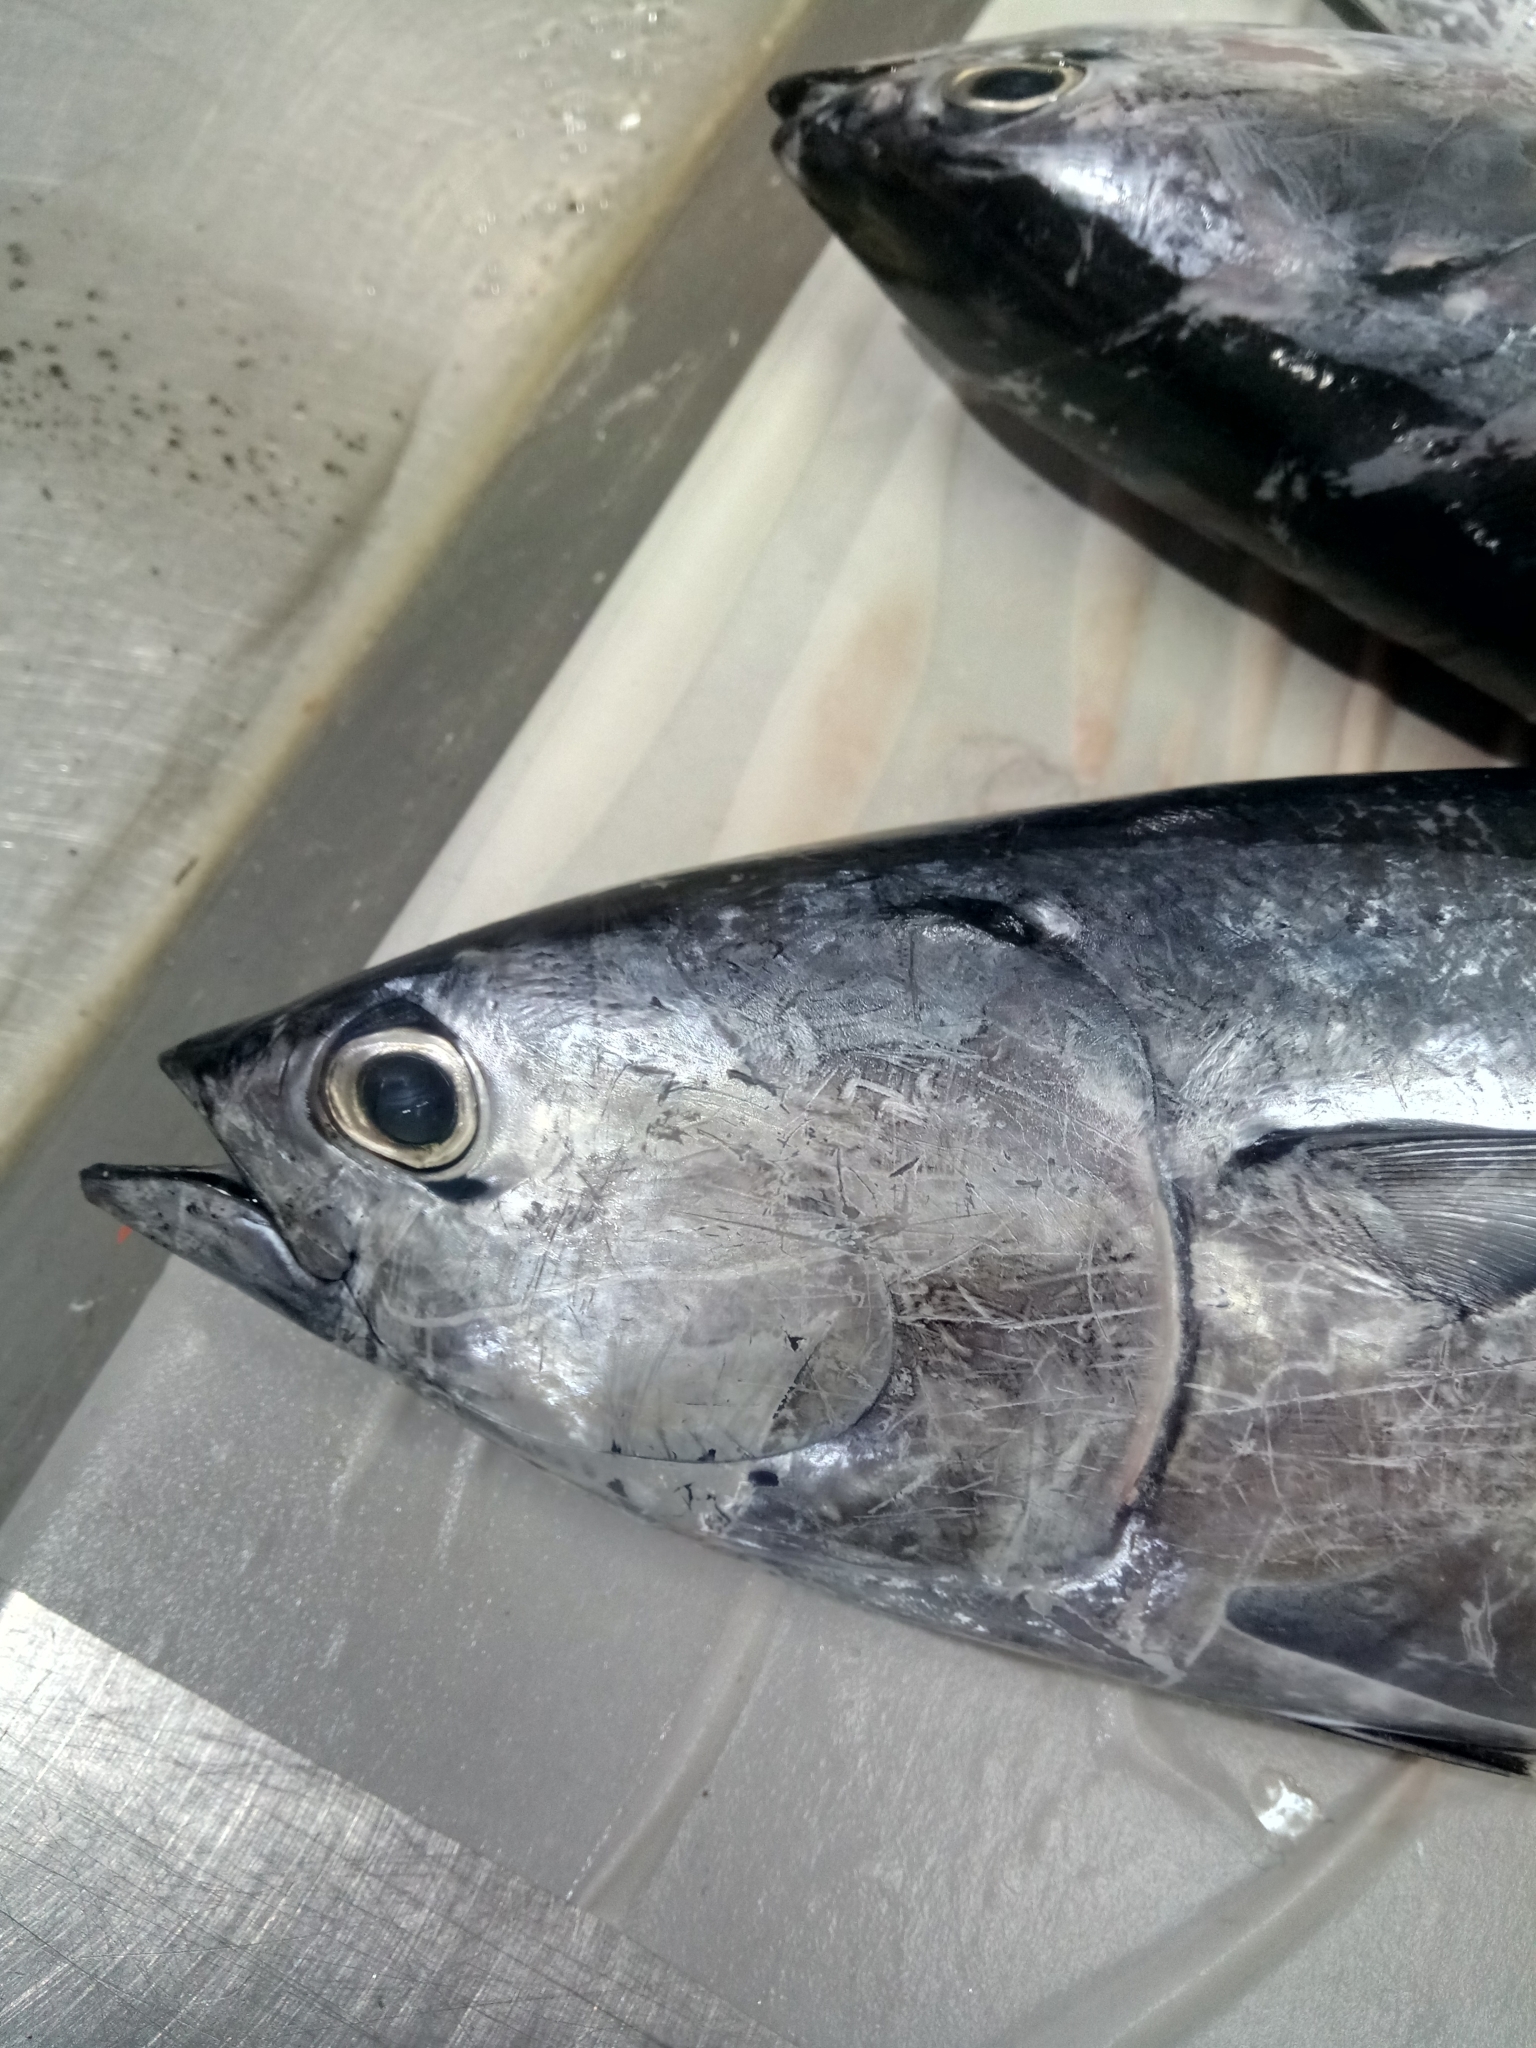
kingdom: Animalia
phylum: Chordata
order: Perciformes
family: Scombridae
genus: Auxis
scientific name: Auxis rochei
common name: Bullet tuna
